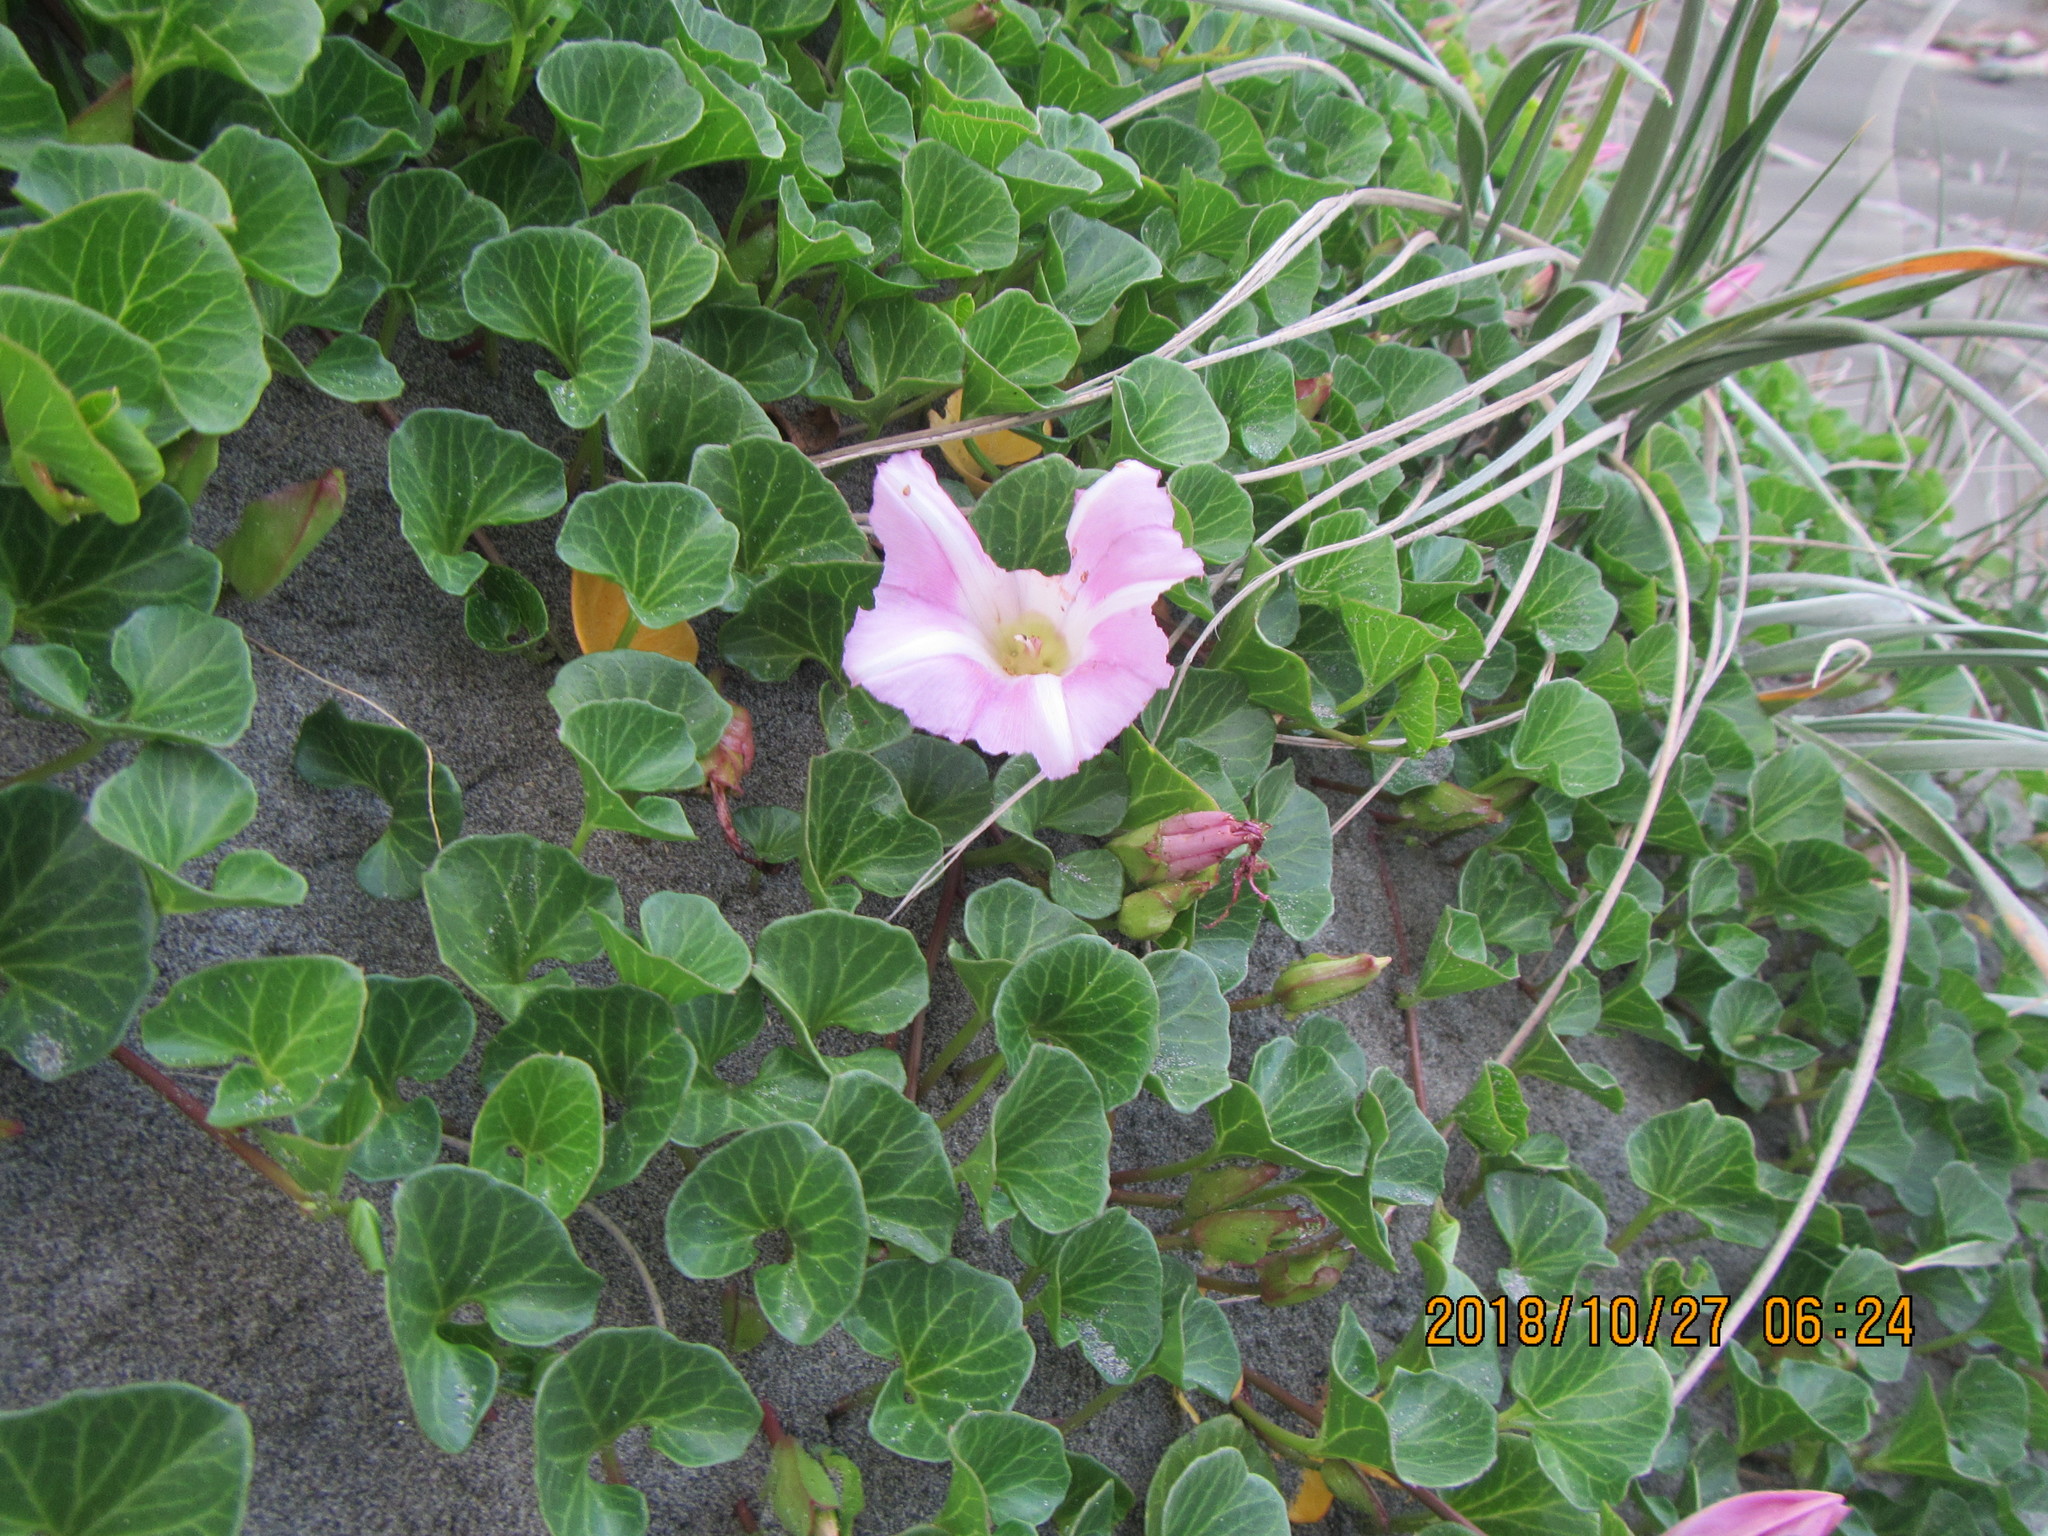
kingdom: Plantae
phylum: Tracheophyta
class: Magnoliopsida
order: Solanales
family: Convolvulaceae
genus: Calystegia
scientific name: Calystegia soldanella
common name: Sea bindweed
